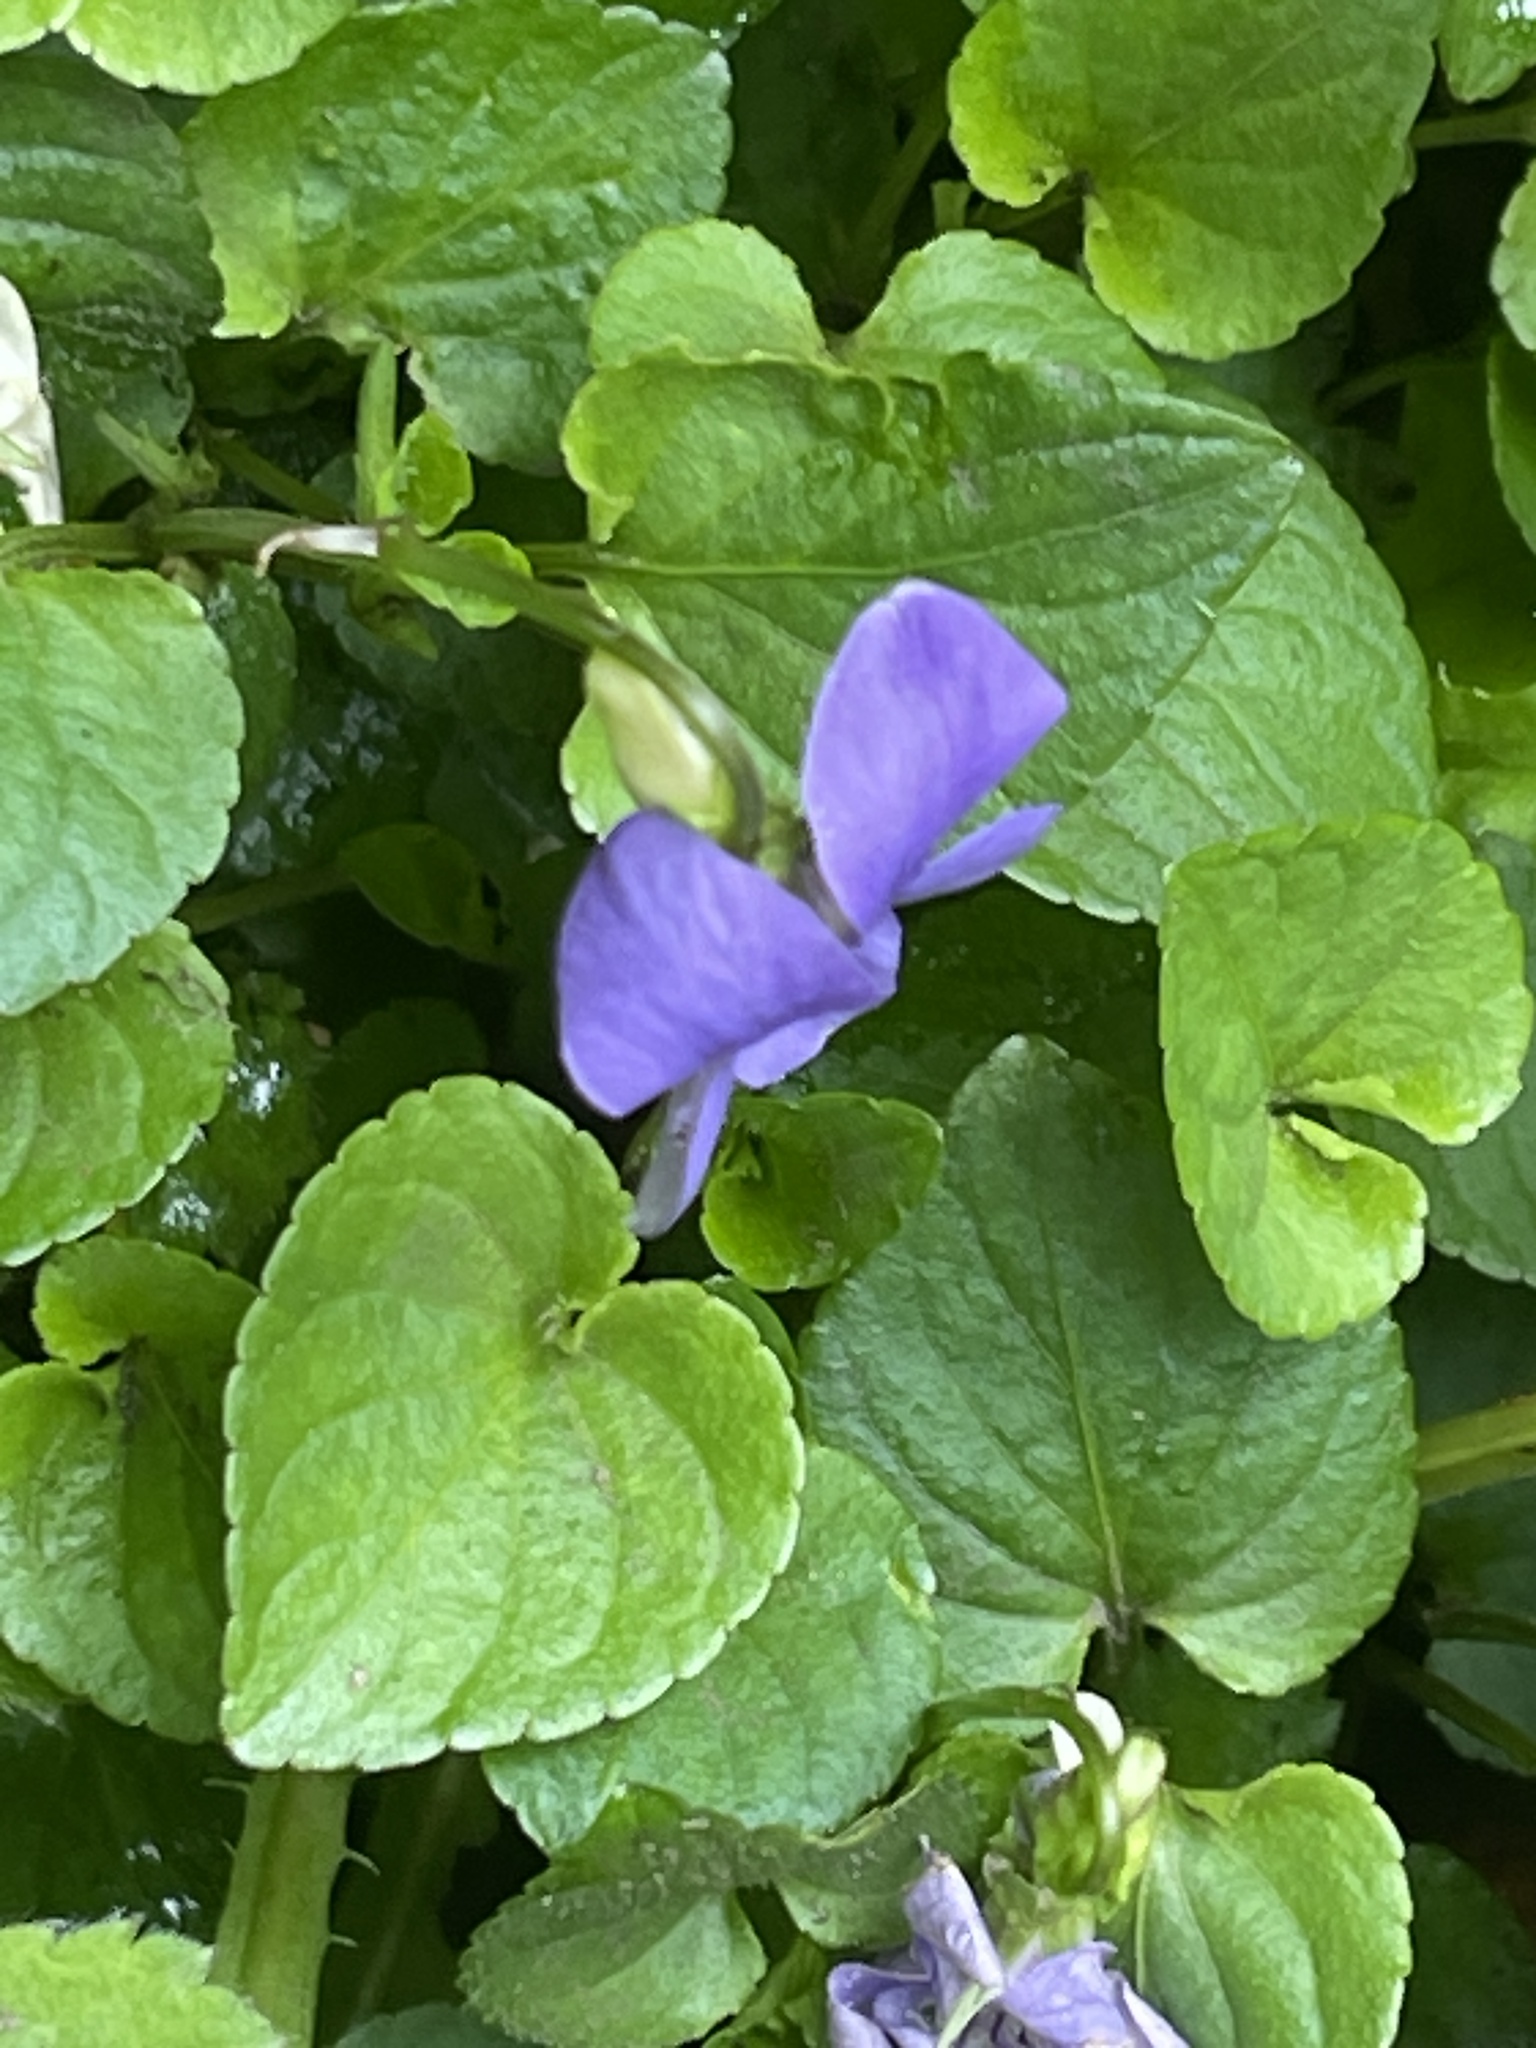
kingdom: Plantae
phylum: Tracheophyta
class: Magnoliopsida
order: Malpighiales
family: Violaceae
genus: Viola
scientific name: Viola riviniana
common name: Common dog-violet
